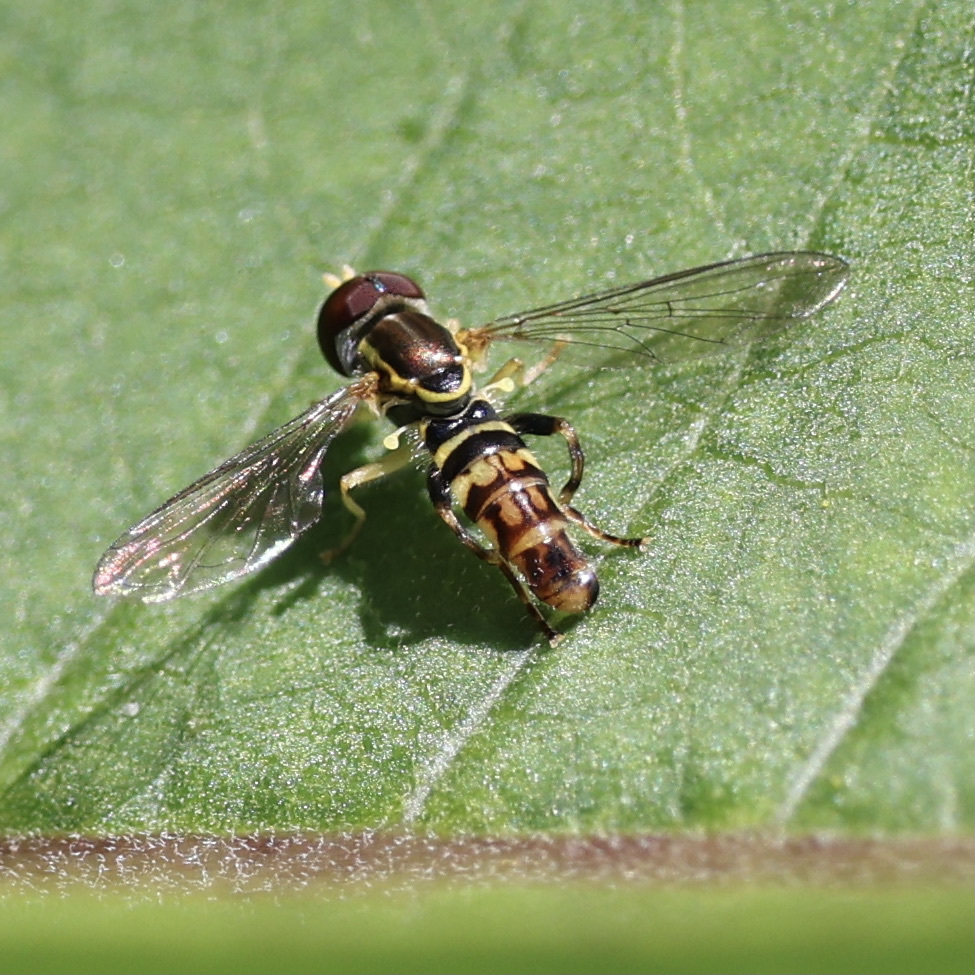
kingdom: Animalia
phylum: Arthropoda
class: Insecta
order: Diptera
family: Syrphidae
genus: Toxomerus
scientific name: Toxomerus geminatus
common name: Eastern calligrapher
